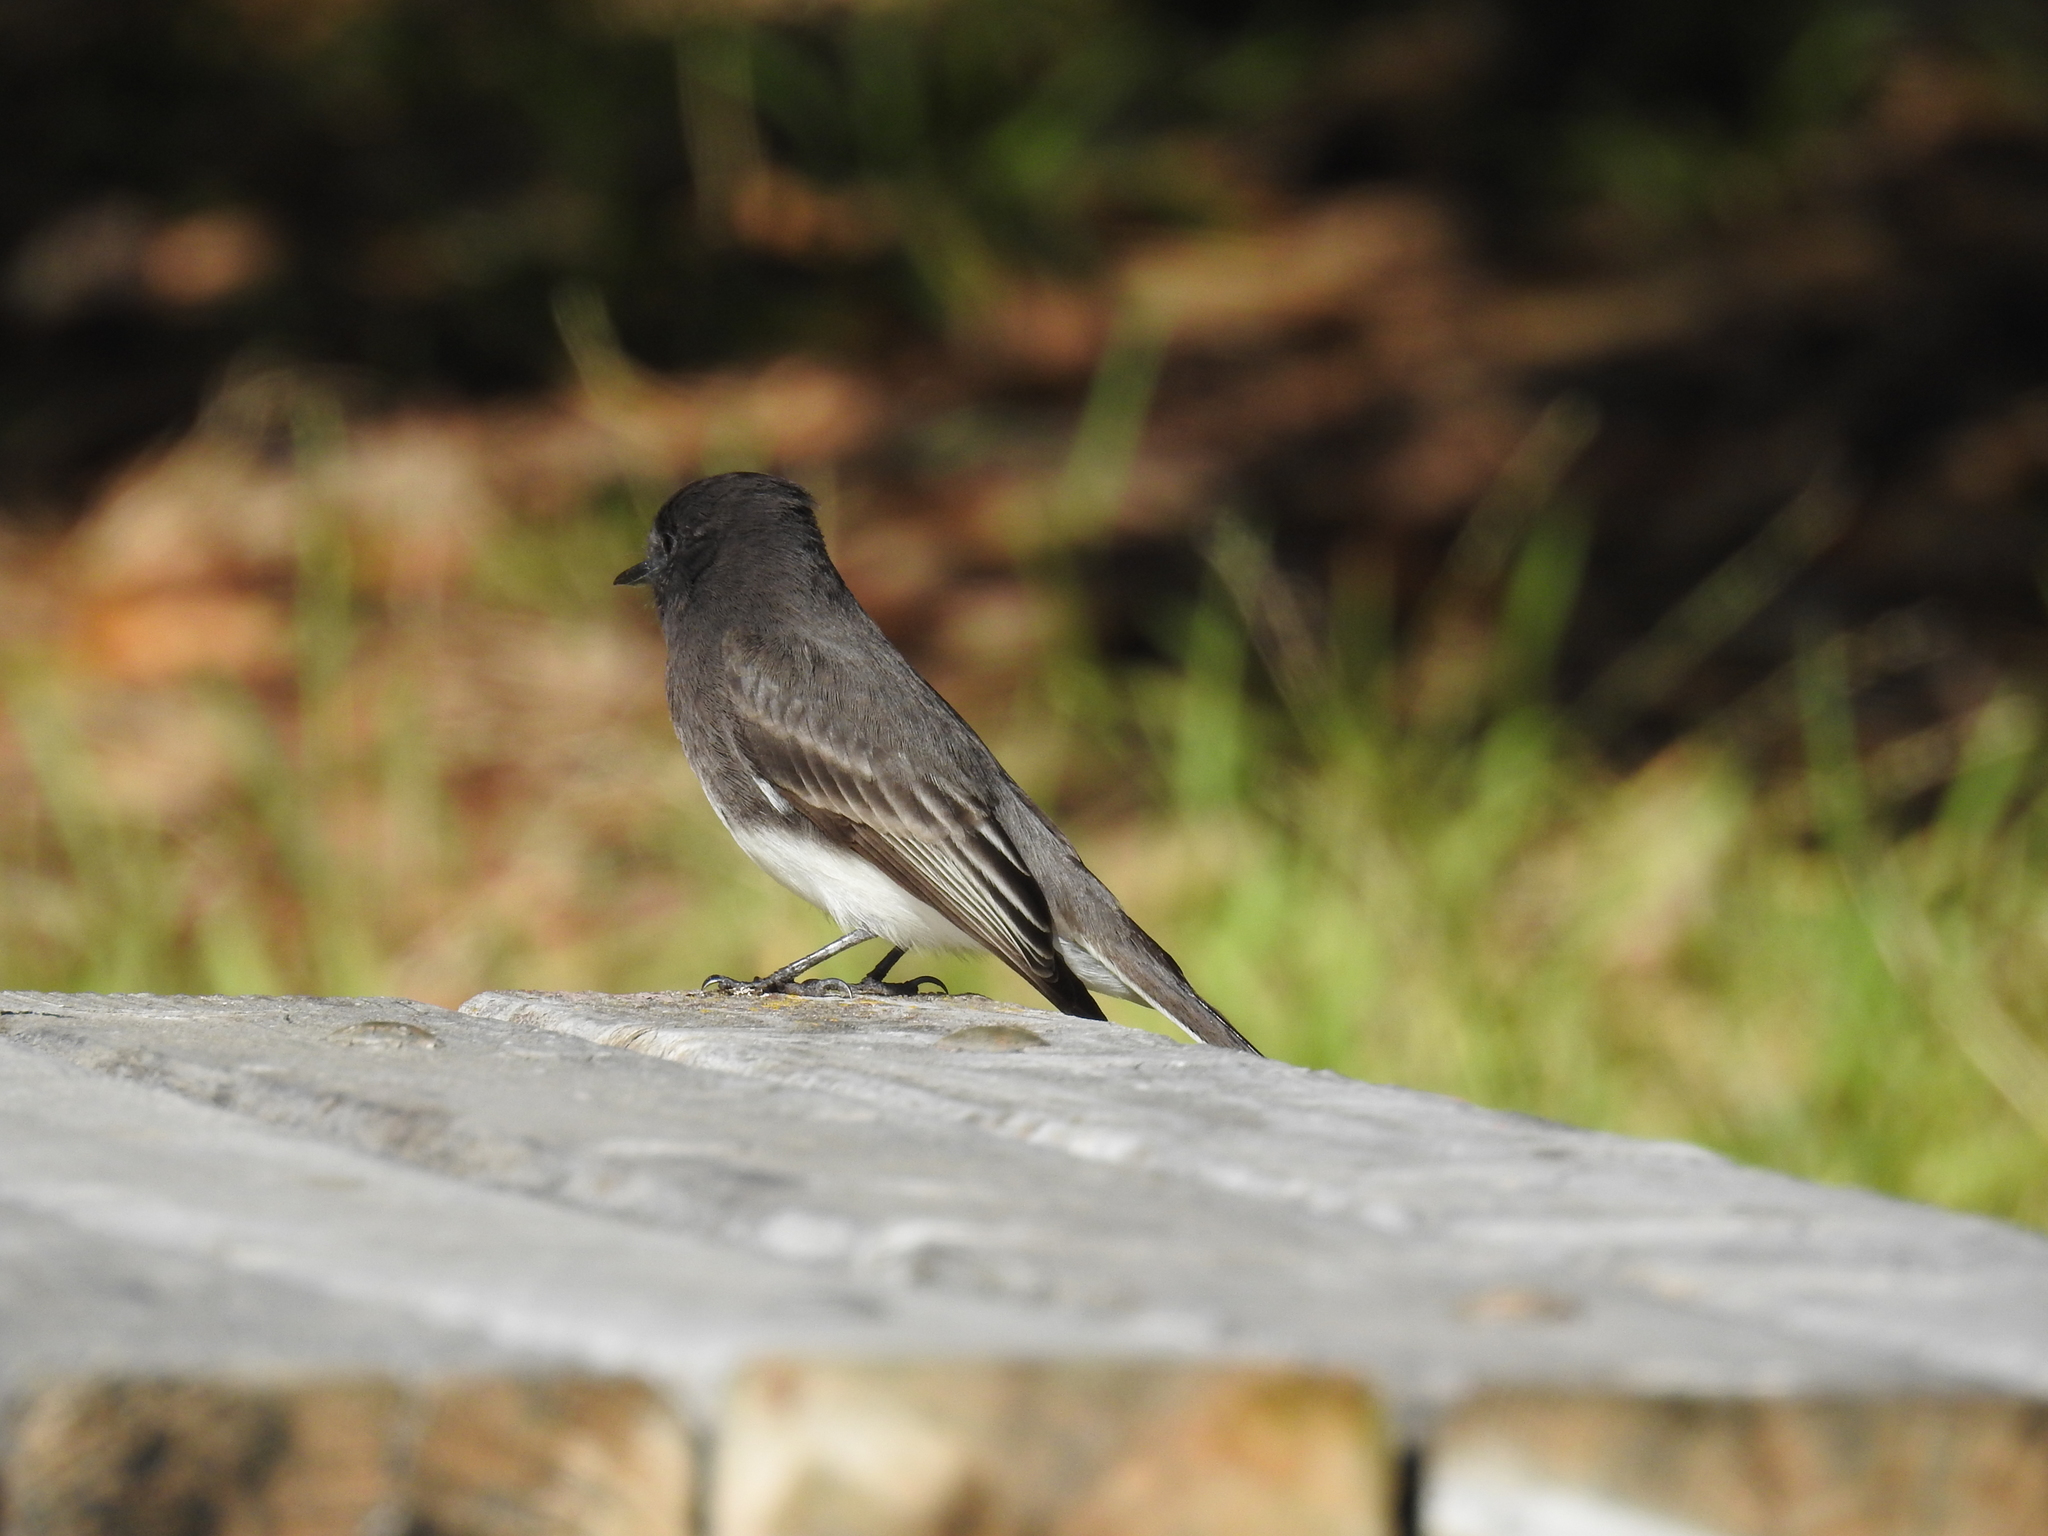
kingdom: Animalia
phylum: Chordata
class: Aves
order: Passeriformes
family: Tyrannidae
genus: Sayornis
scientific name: Sayornis nigricans
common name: Black phoebe
